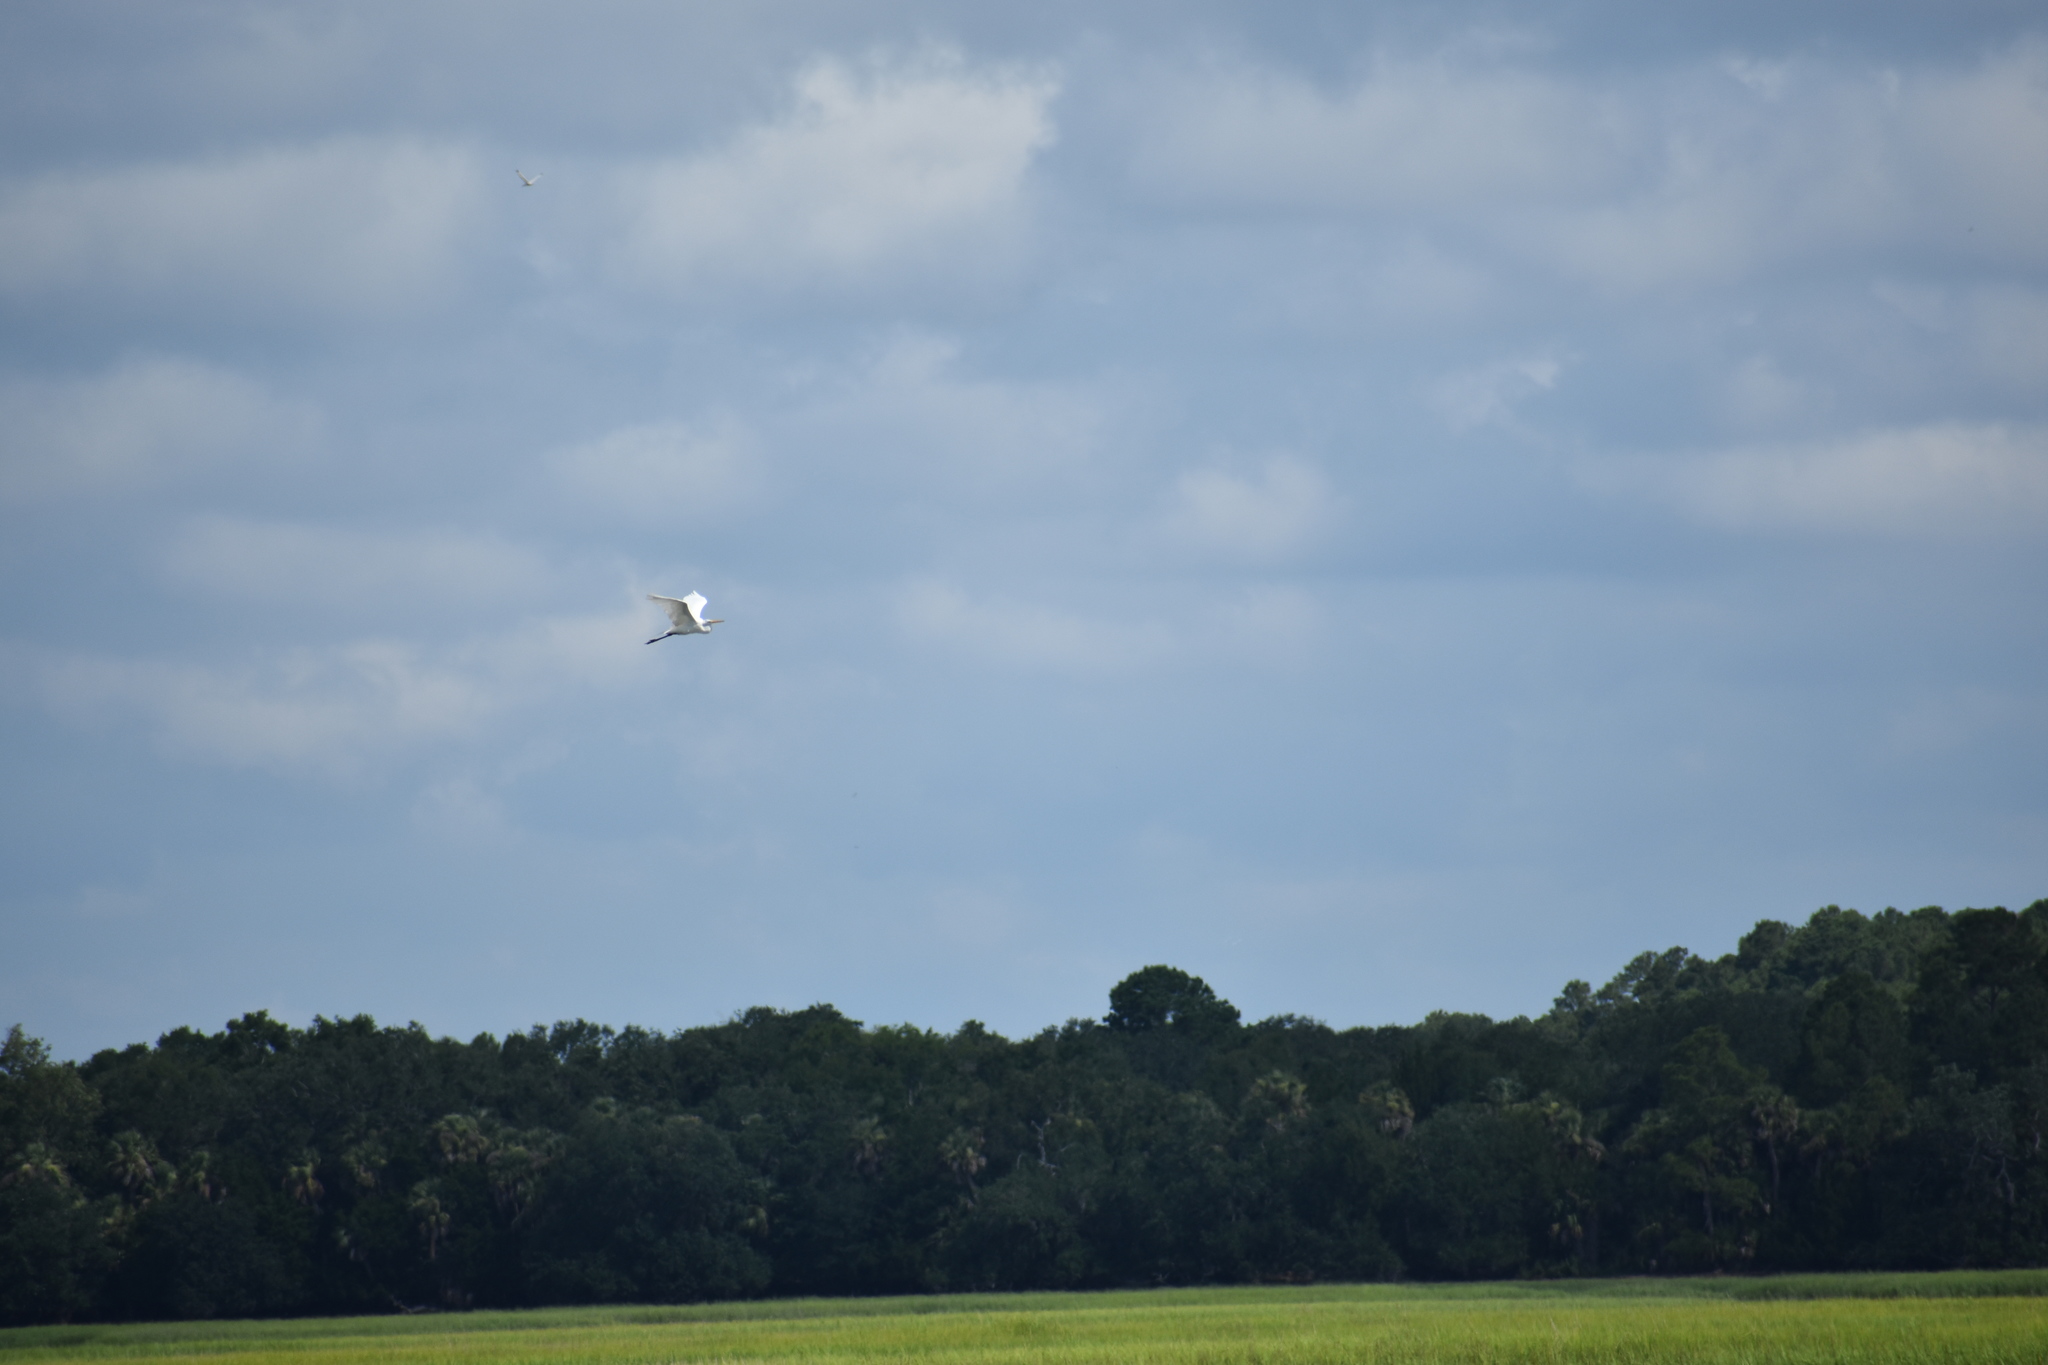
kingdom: Animalia
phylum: Chordata
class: Aves
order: Pelecaniformes
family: Ardeidae
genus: Ardea
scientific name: Ardea alba
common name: Great egret
